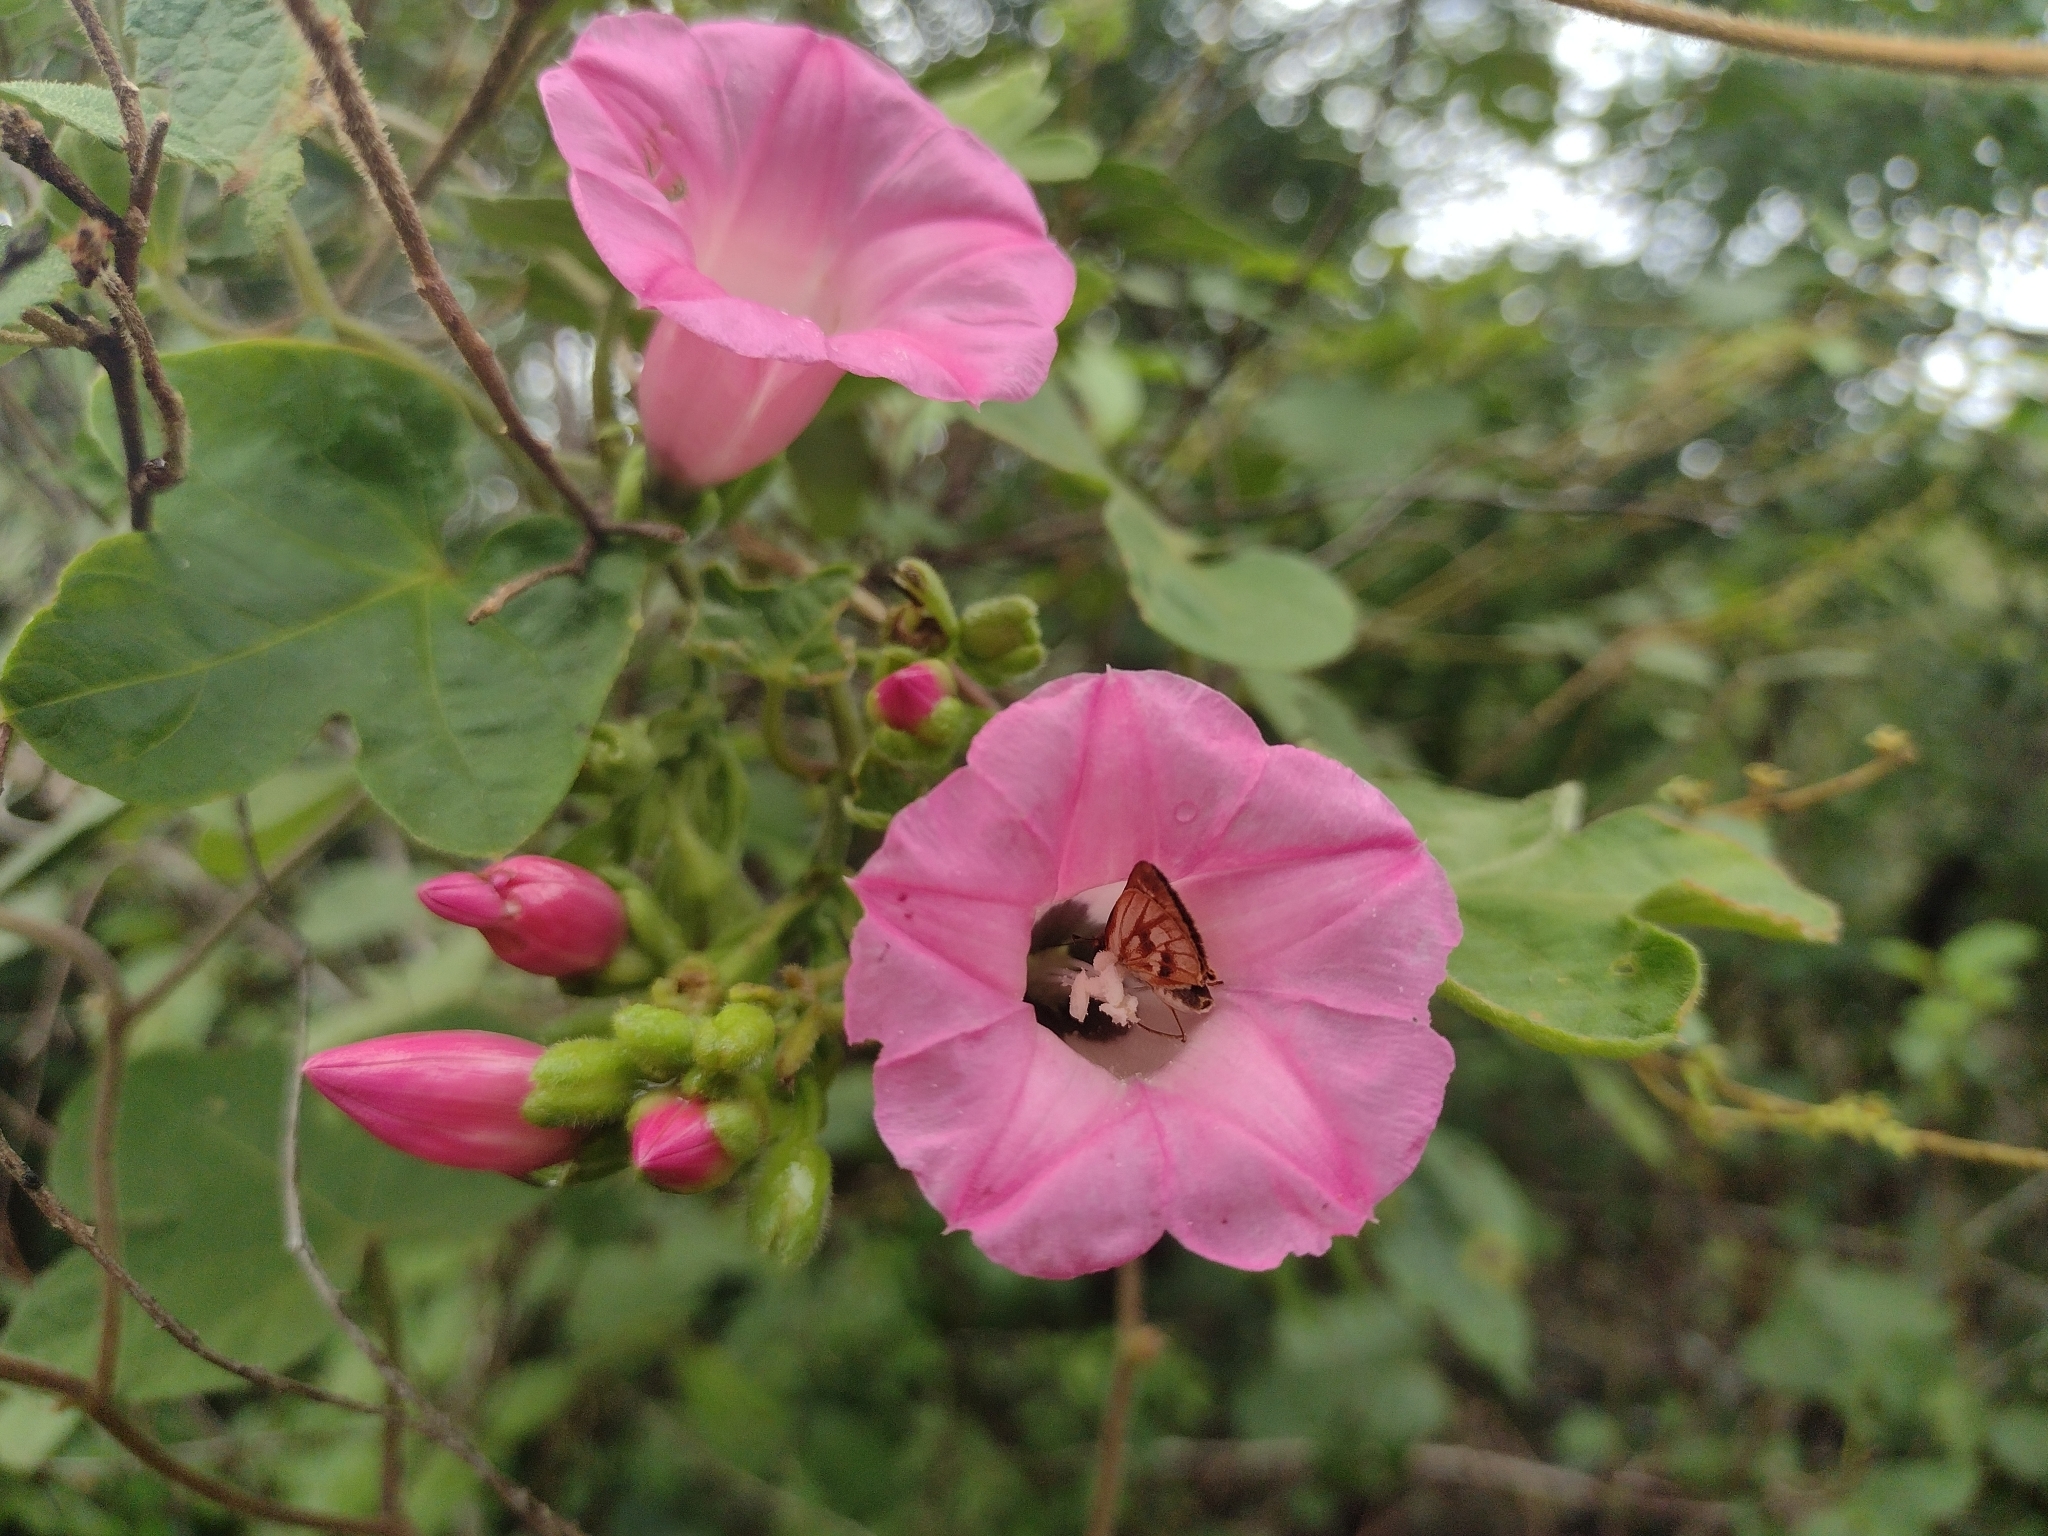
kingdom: Plantae
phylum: Tracheophyta
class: Magnoliopsida
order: Solanales
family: Convolvulaceae
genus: Ipomoea
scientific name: Ipomoea peteri
